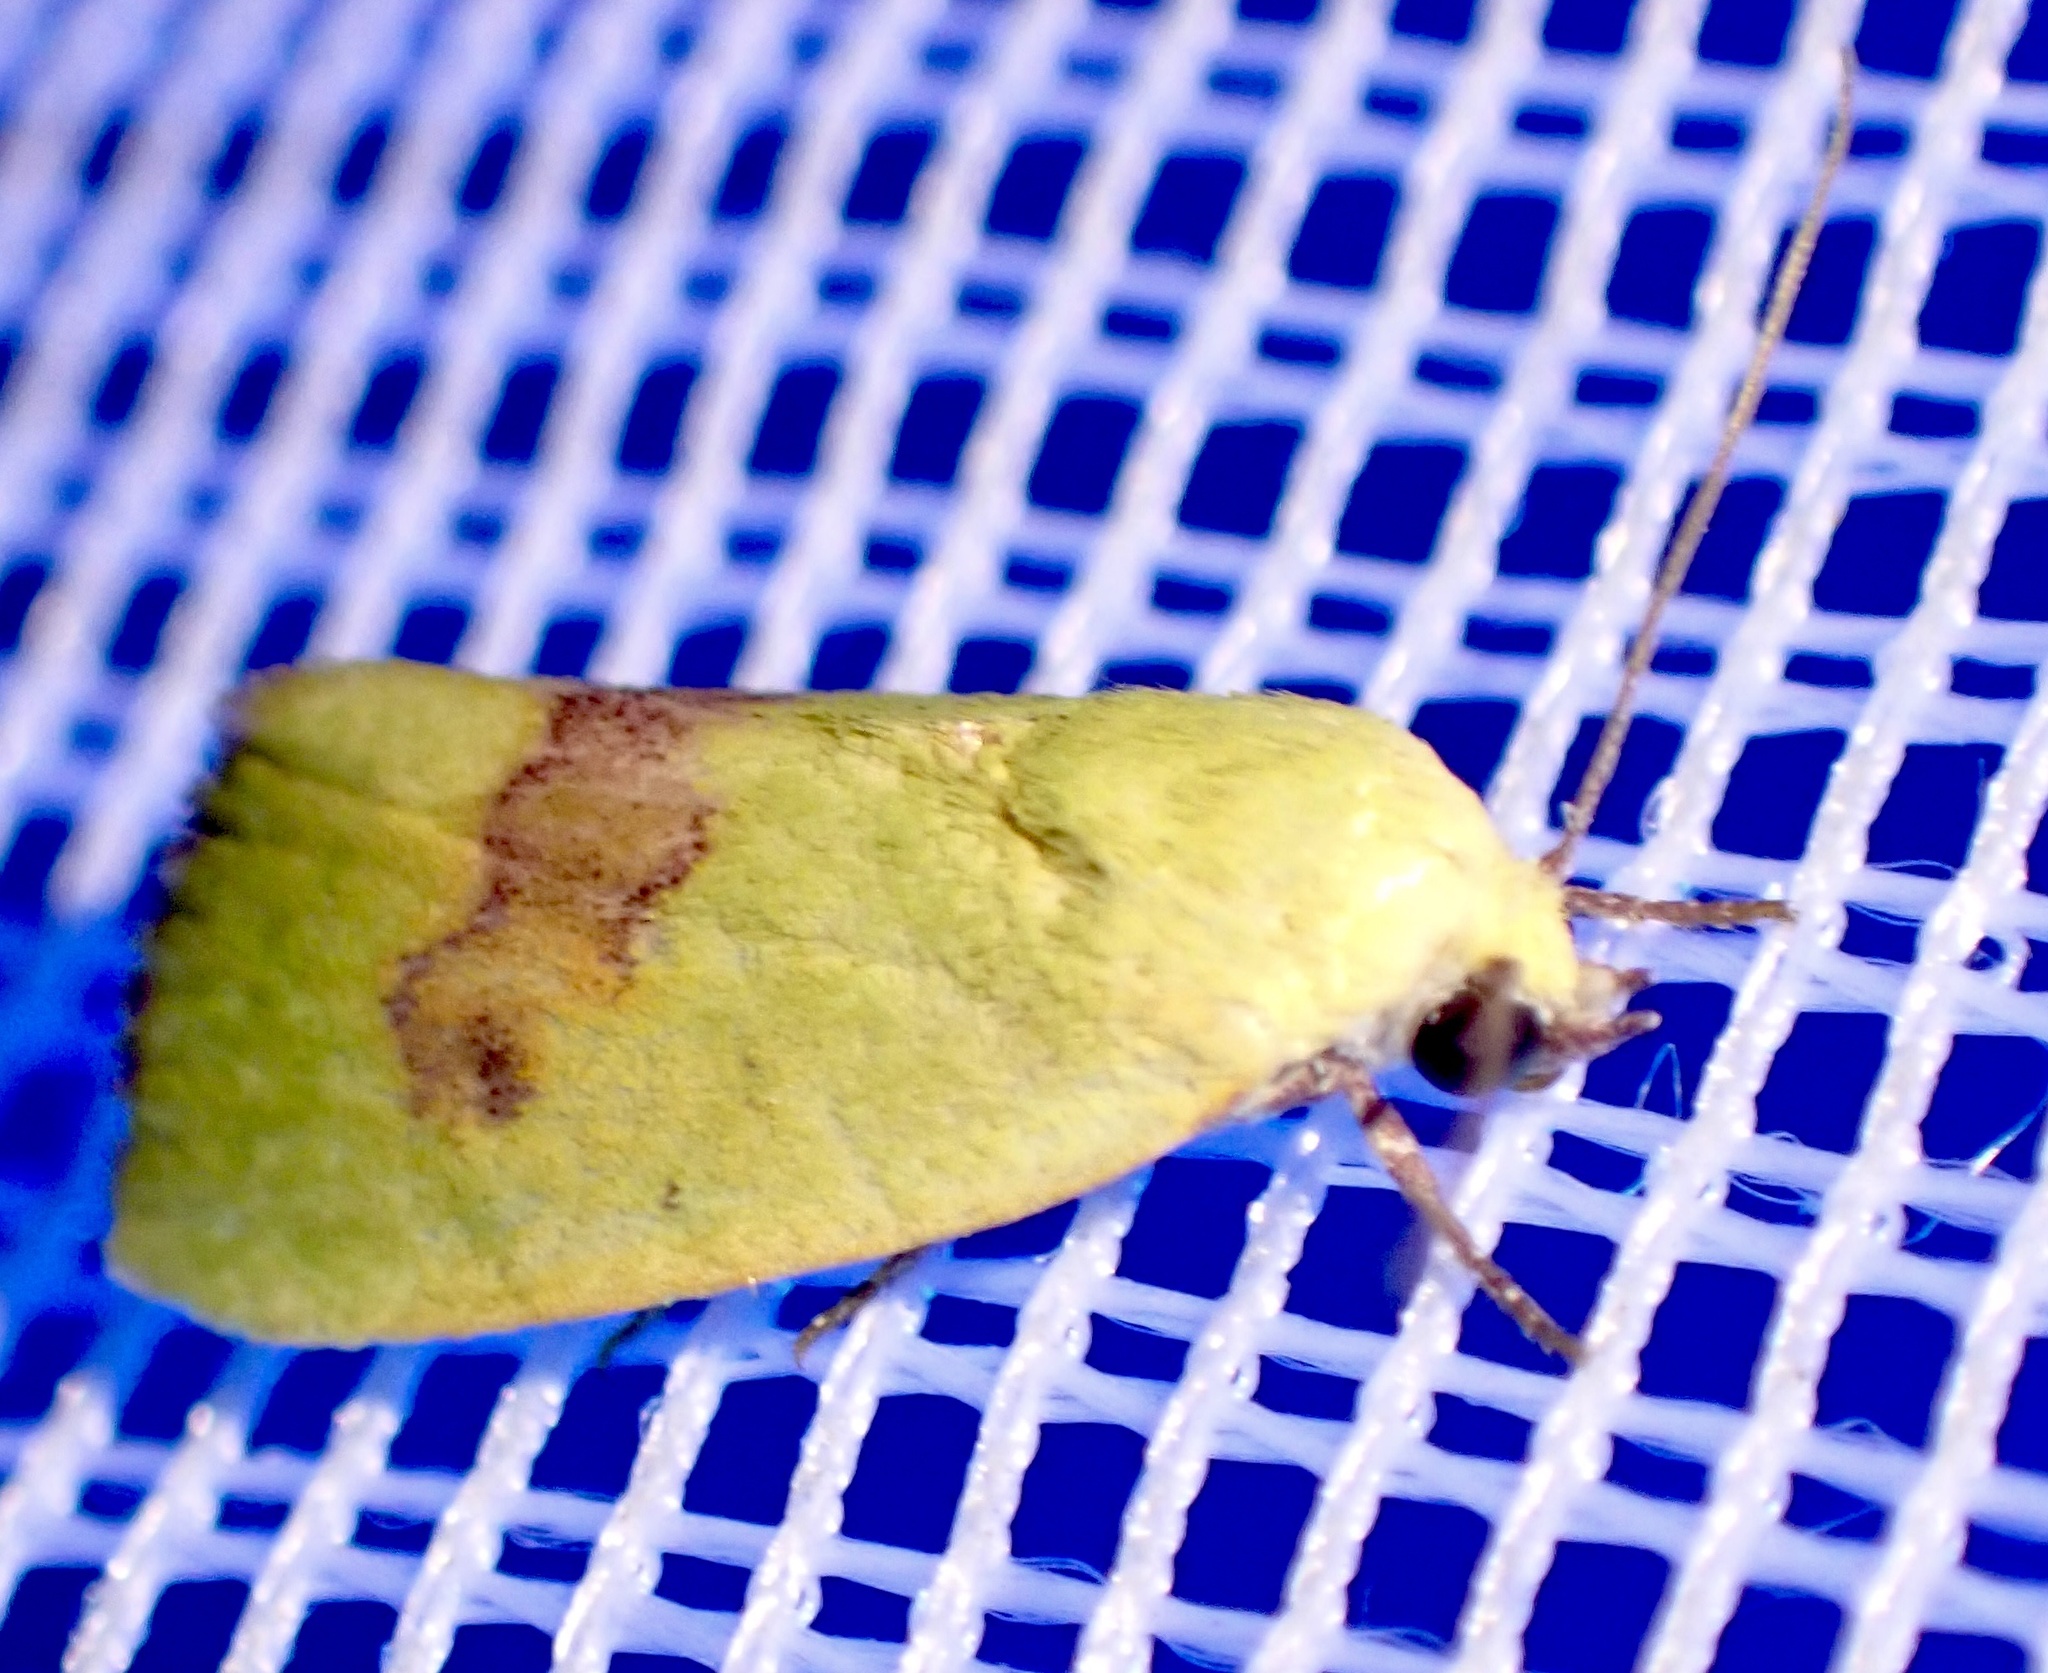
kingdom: Animalia
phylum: Arthropoda
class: Insecta
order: Lepidoptera
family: Nolidae
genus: Earias
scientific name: Earias biplaga
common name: Spiny bollworm
